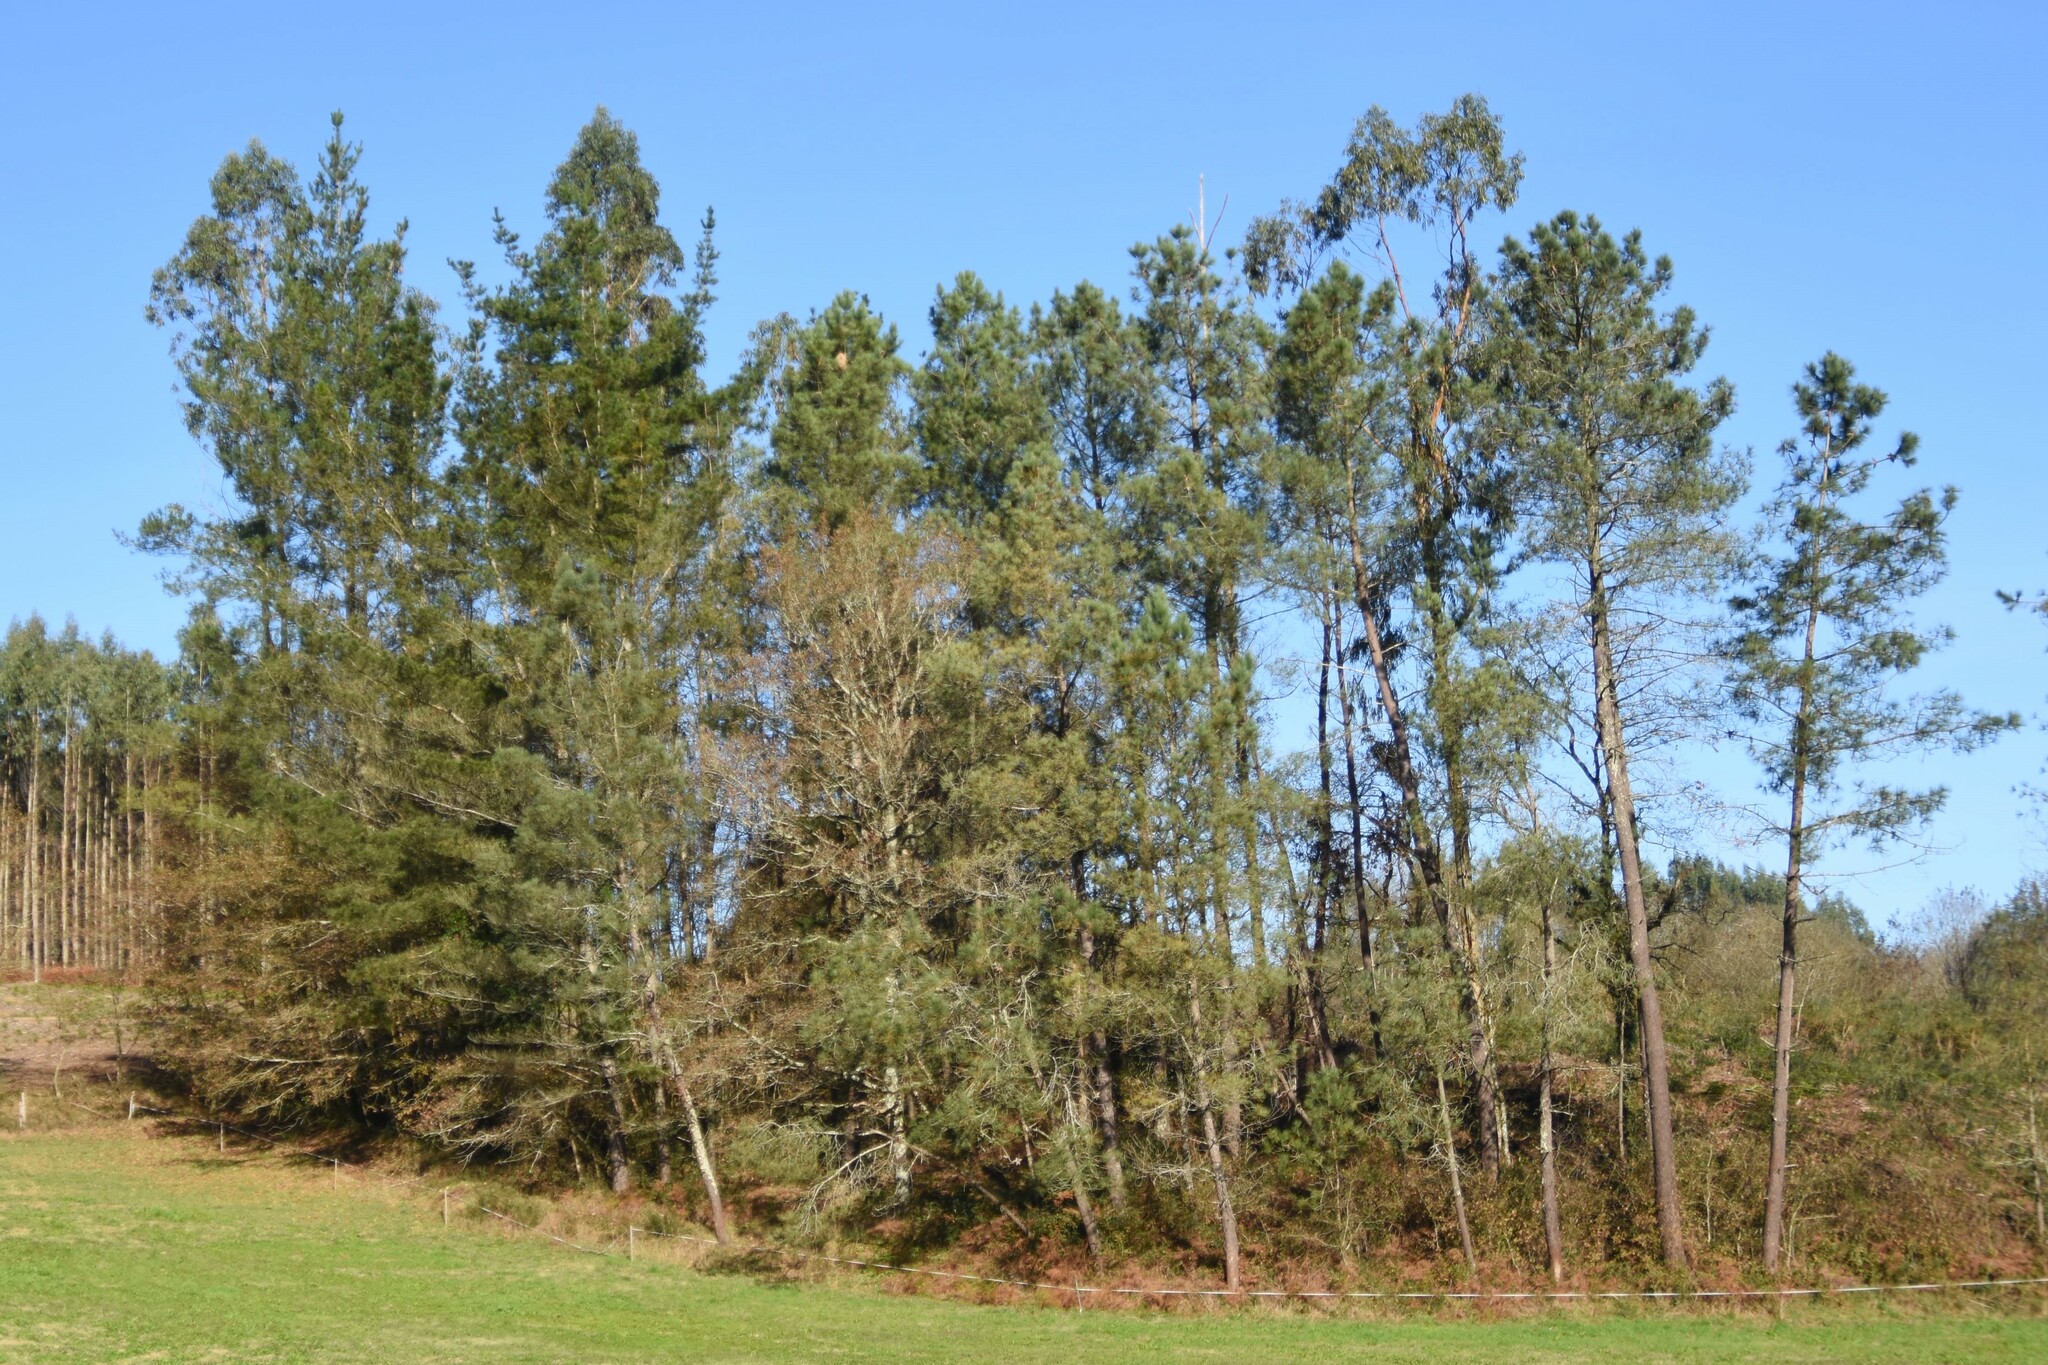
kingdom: Animalia
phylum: Arthropoda
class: Insecta
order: Hymenoptera
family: Vespidae
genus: Vespa
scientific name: Vespa velutina
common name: Asian hornet
